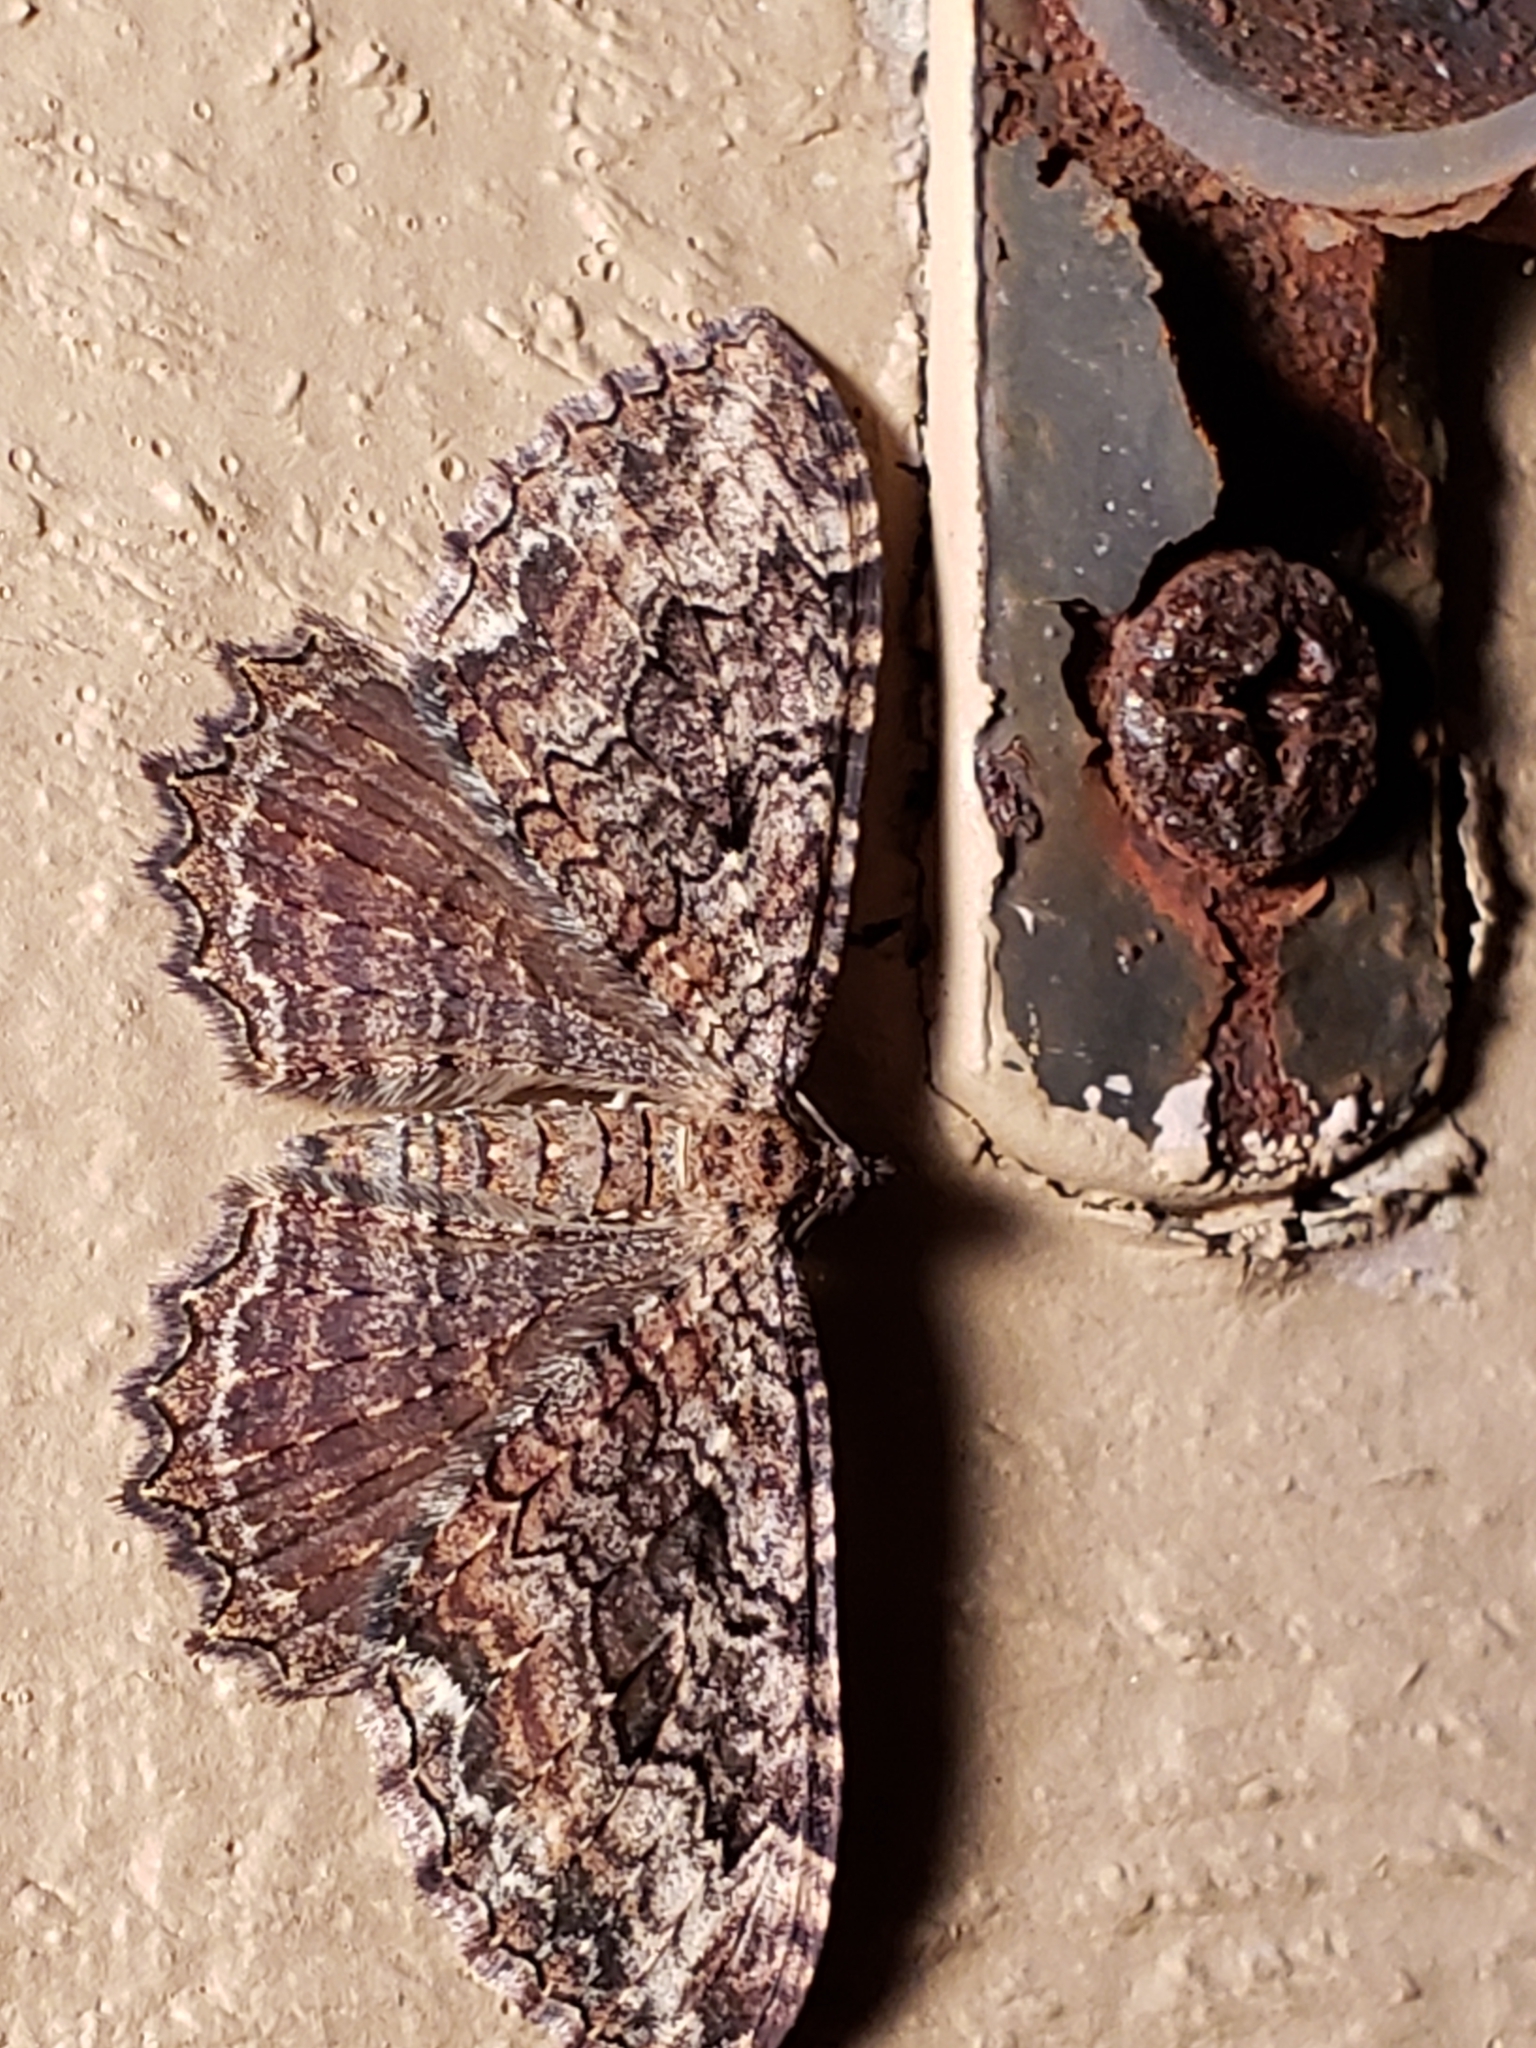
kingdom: Animalia
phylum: Arthropoda
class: Insecta
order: Lepidoptera
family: Geometridae
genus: Rheumaptera
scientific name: Rheumaptera
